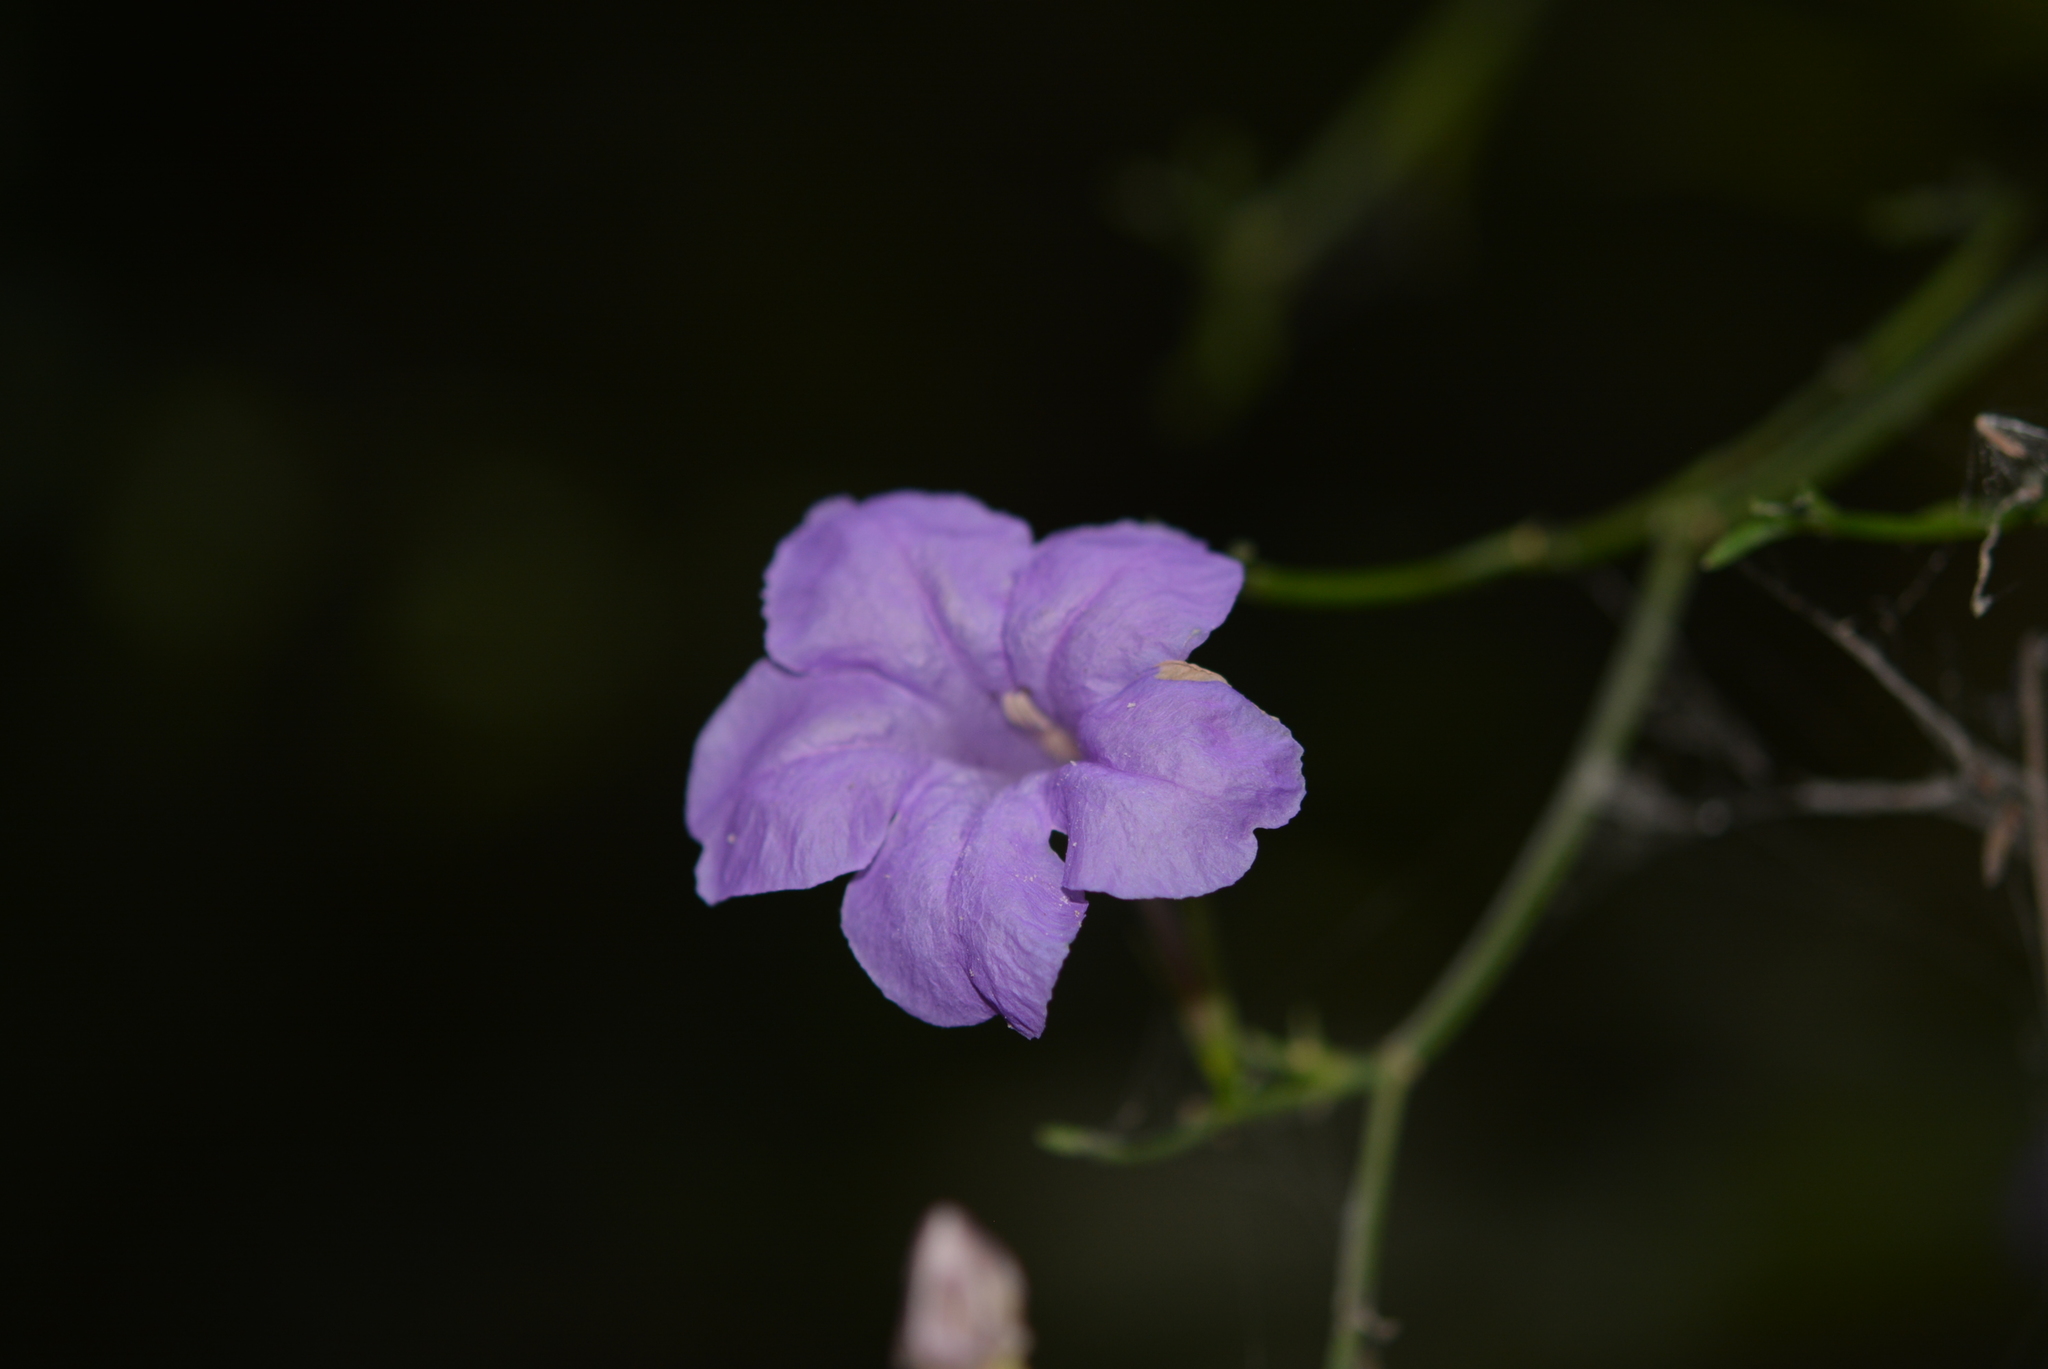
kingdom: Plantae
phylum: Tracheophyta
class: Magnoliopsida
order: Lamiales
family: Acanthaceae
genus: Ruellia
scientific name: Ruellia matagalpae
